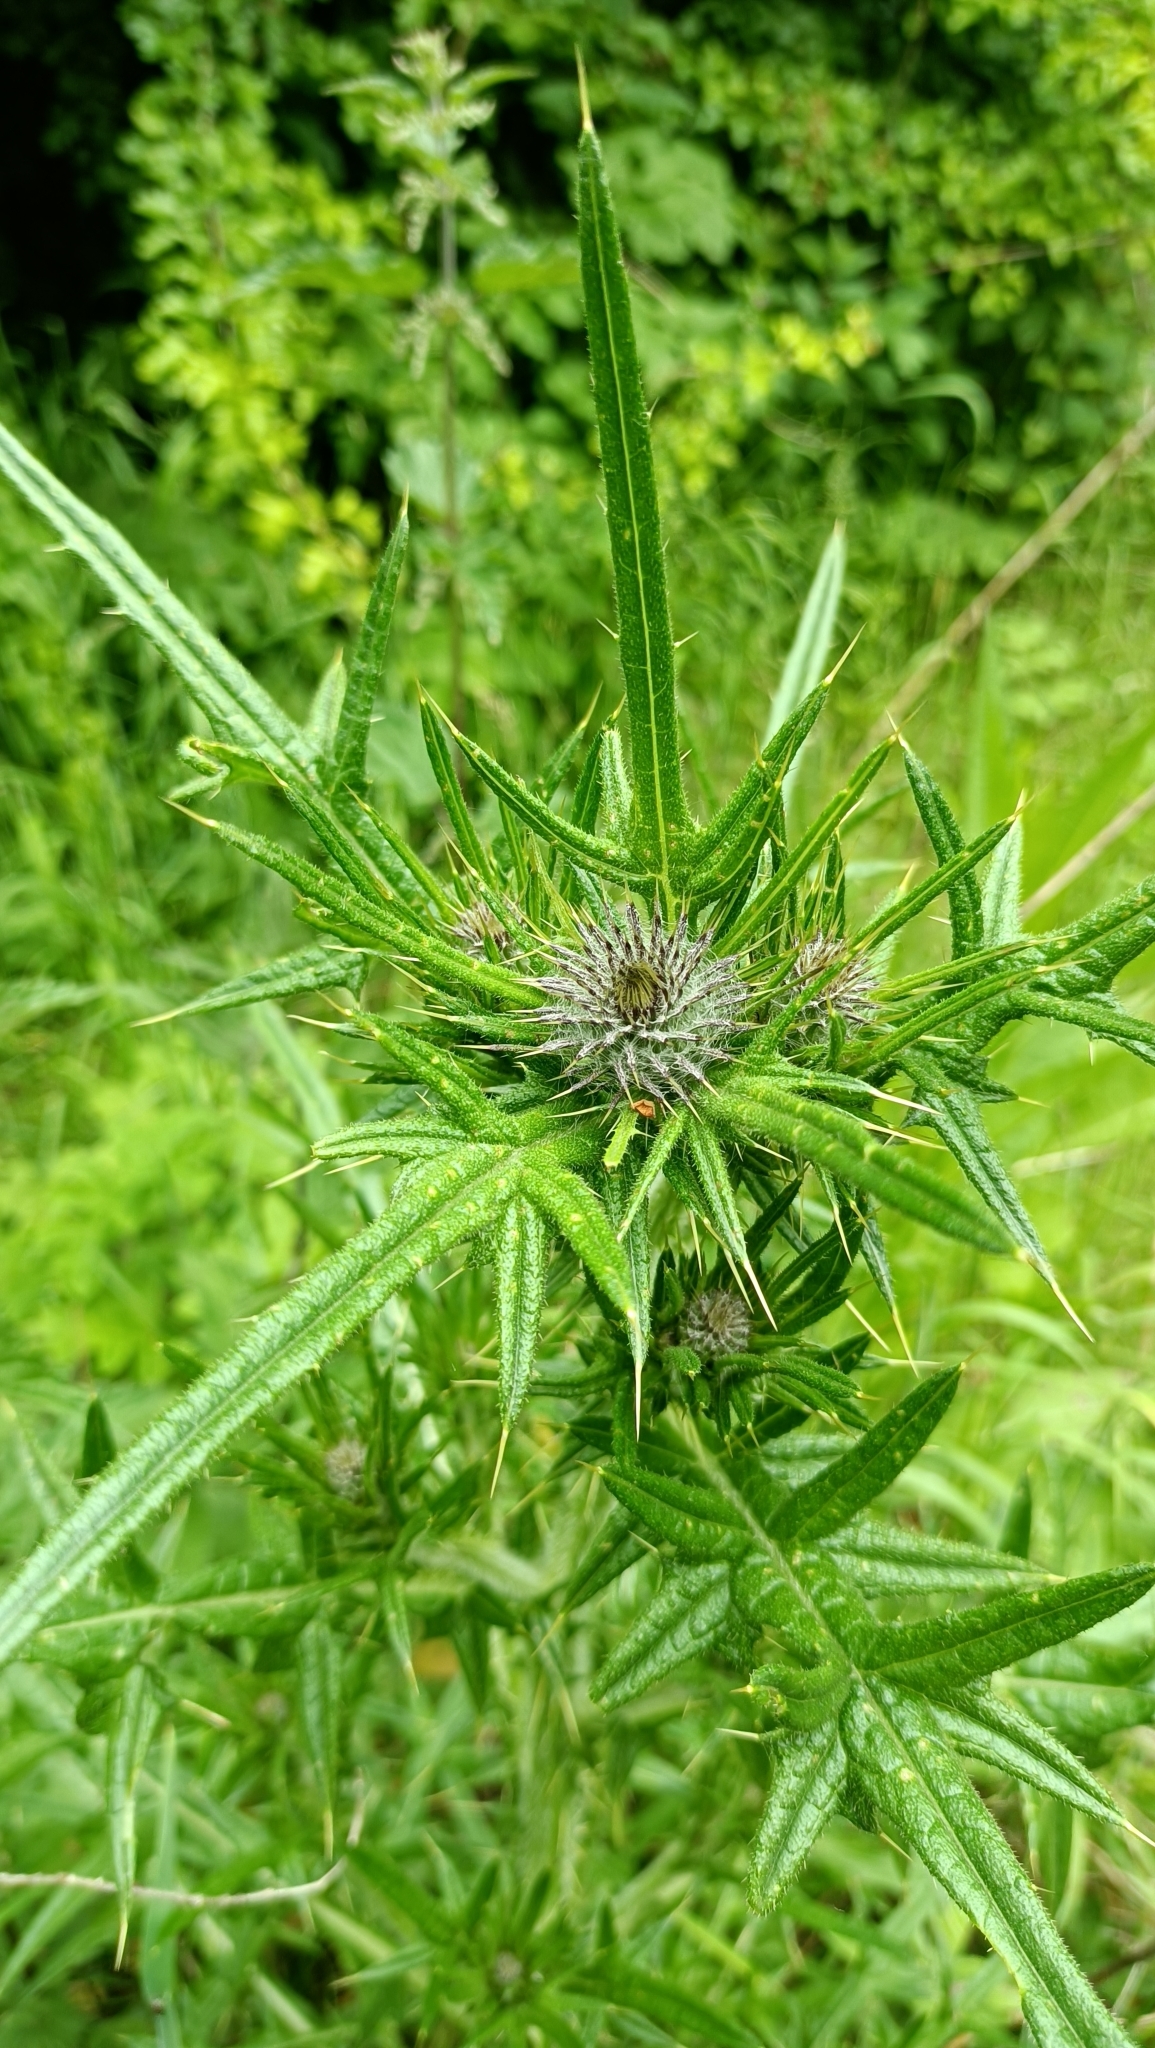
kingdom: Plantae
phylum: Tracheophyta
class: Magnoliopsida
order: Asterales
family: Asteraceae
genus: Cirsium
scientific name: Cirsium vulgare
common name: Bull thistle
